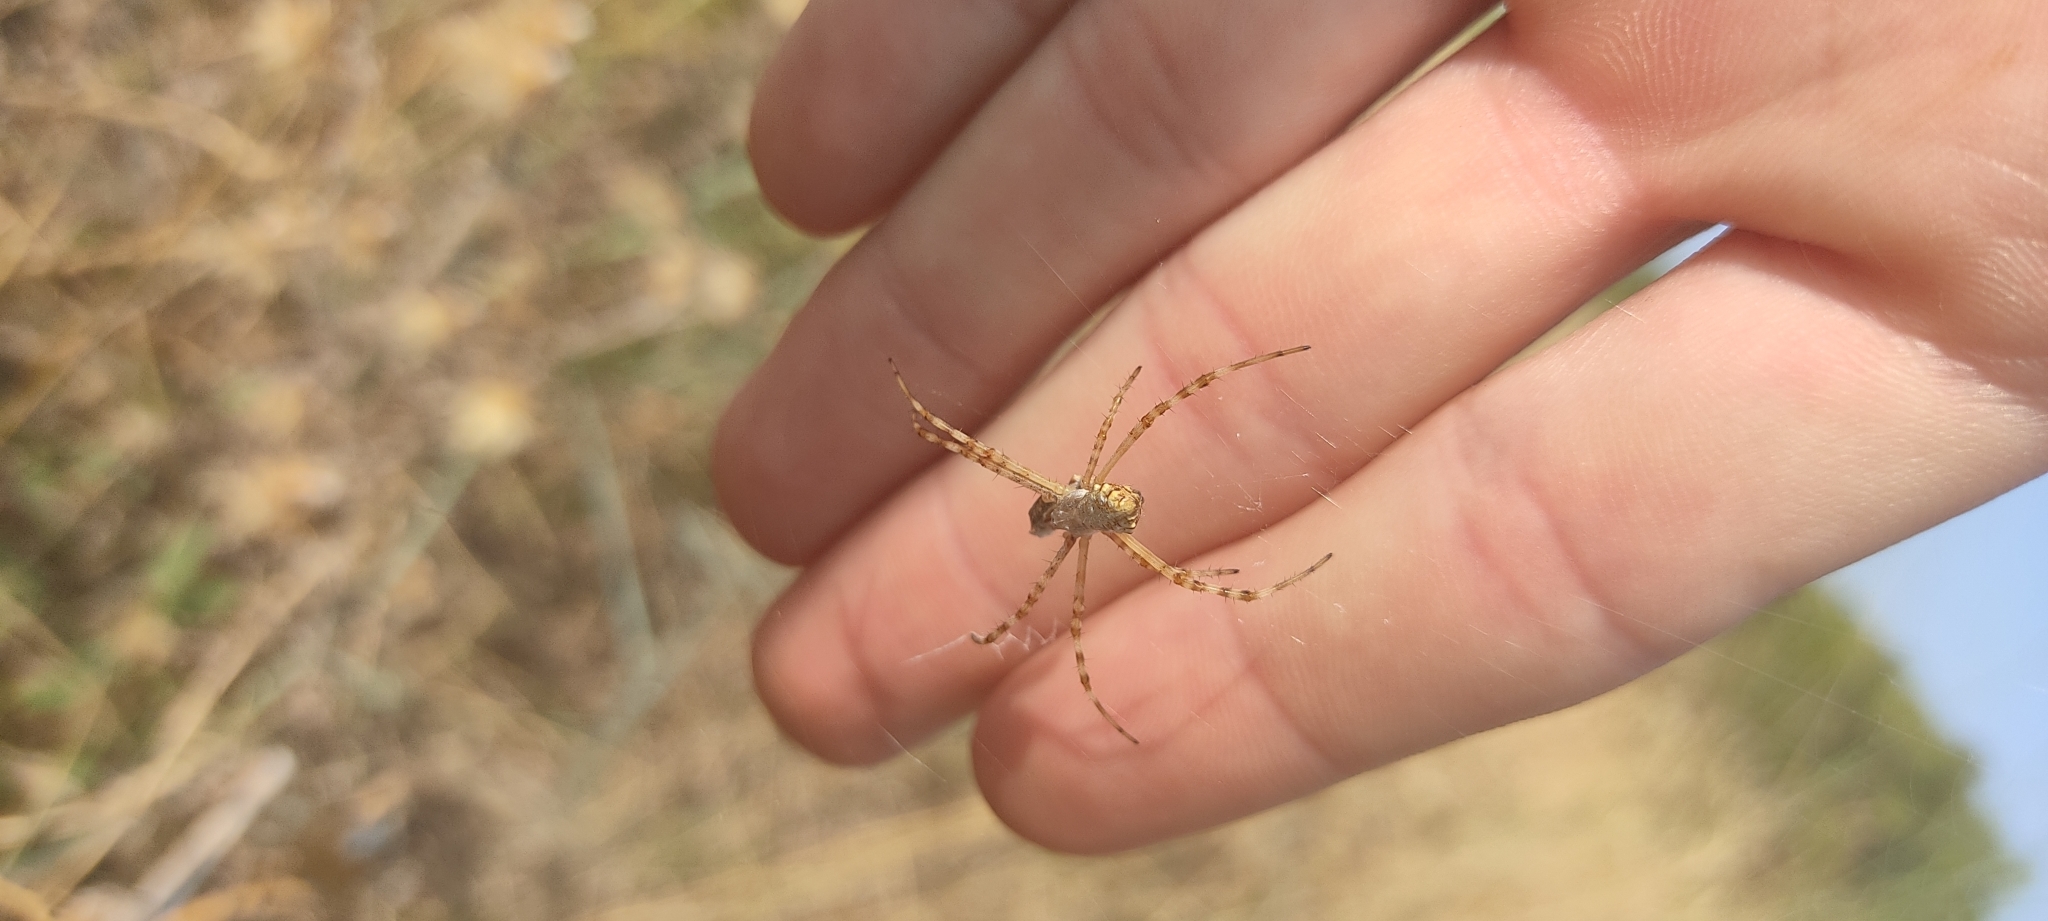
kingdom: Animalia
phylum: Arthropoda
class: Arachnida
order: Araneae
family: Araneidae
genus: Argiope
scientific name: Argiope lobata
